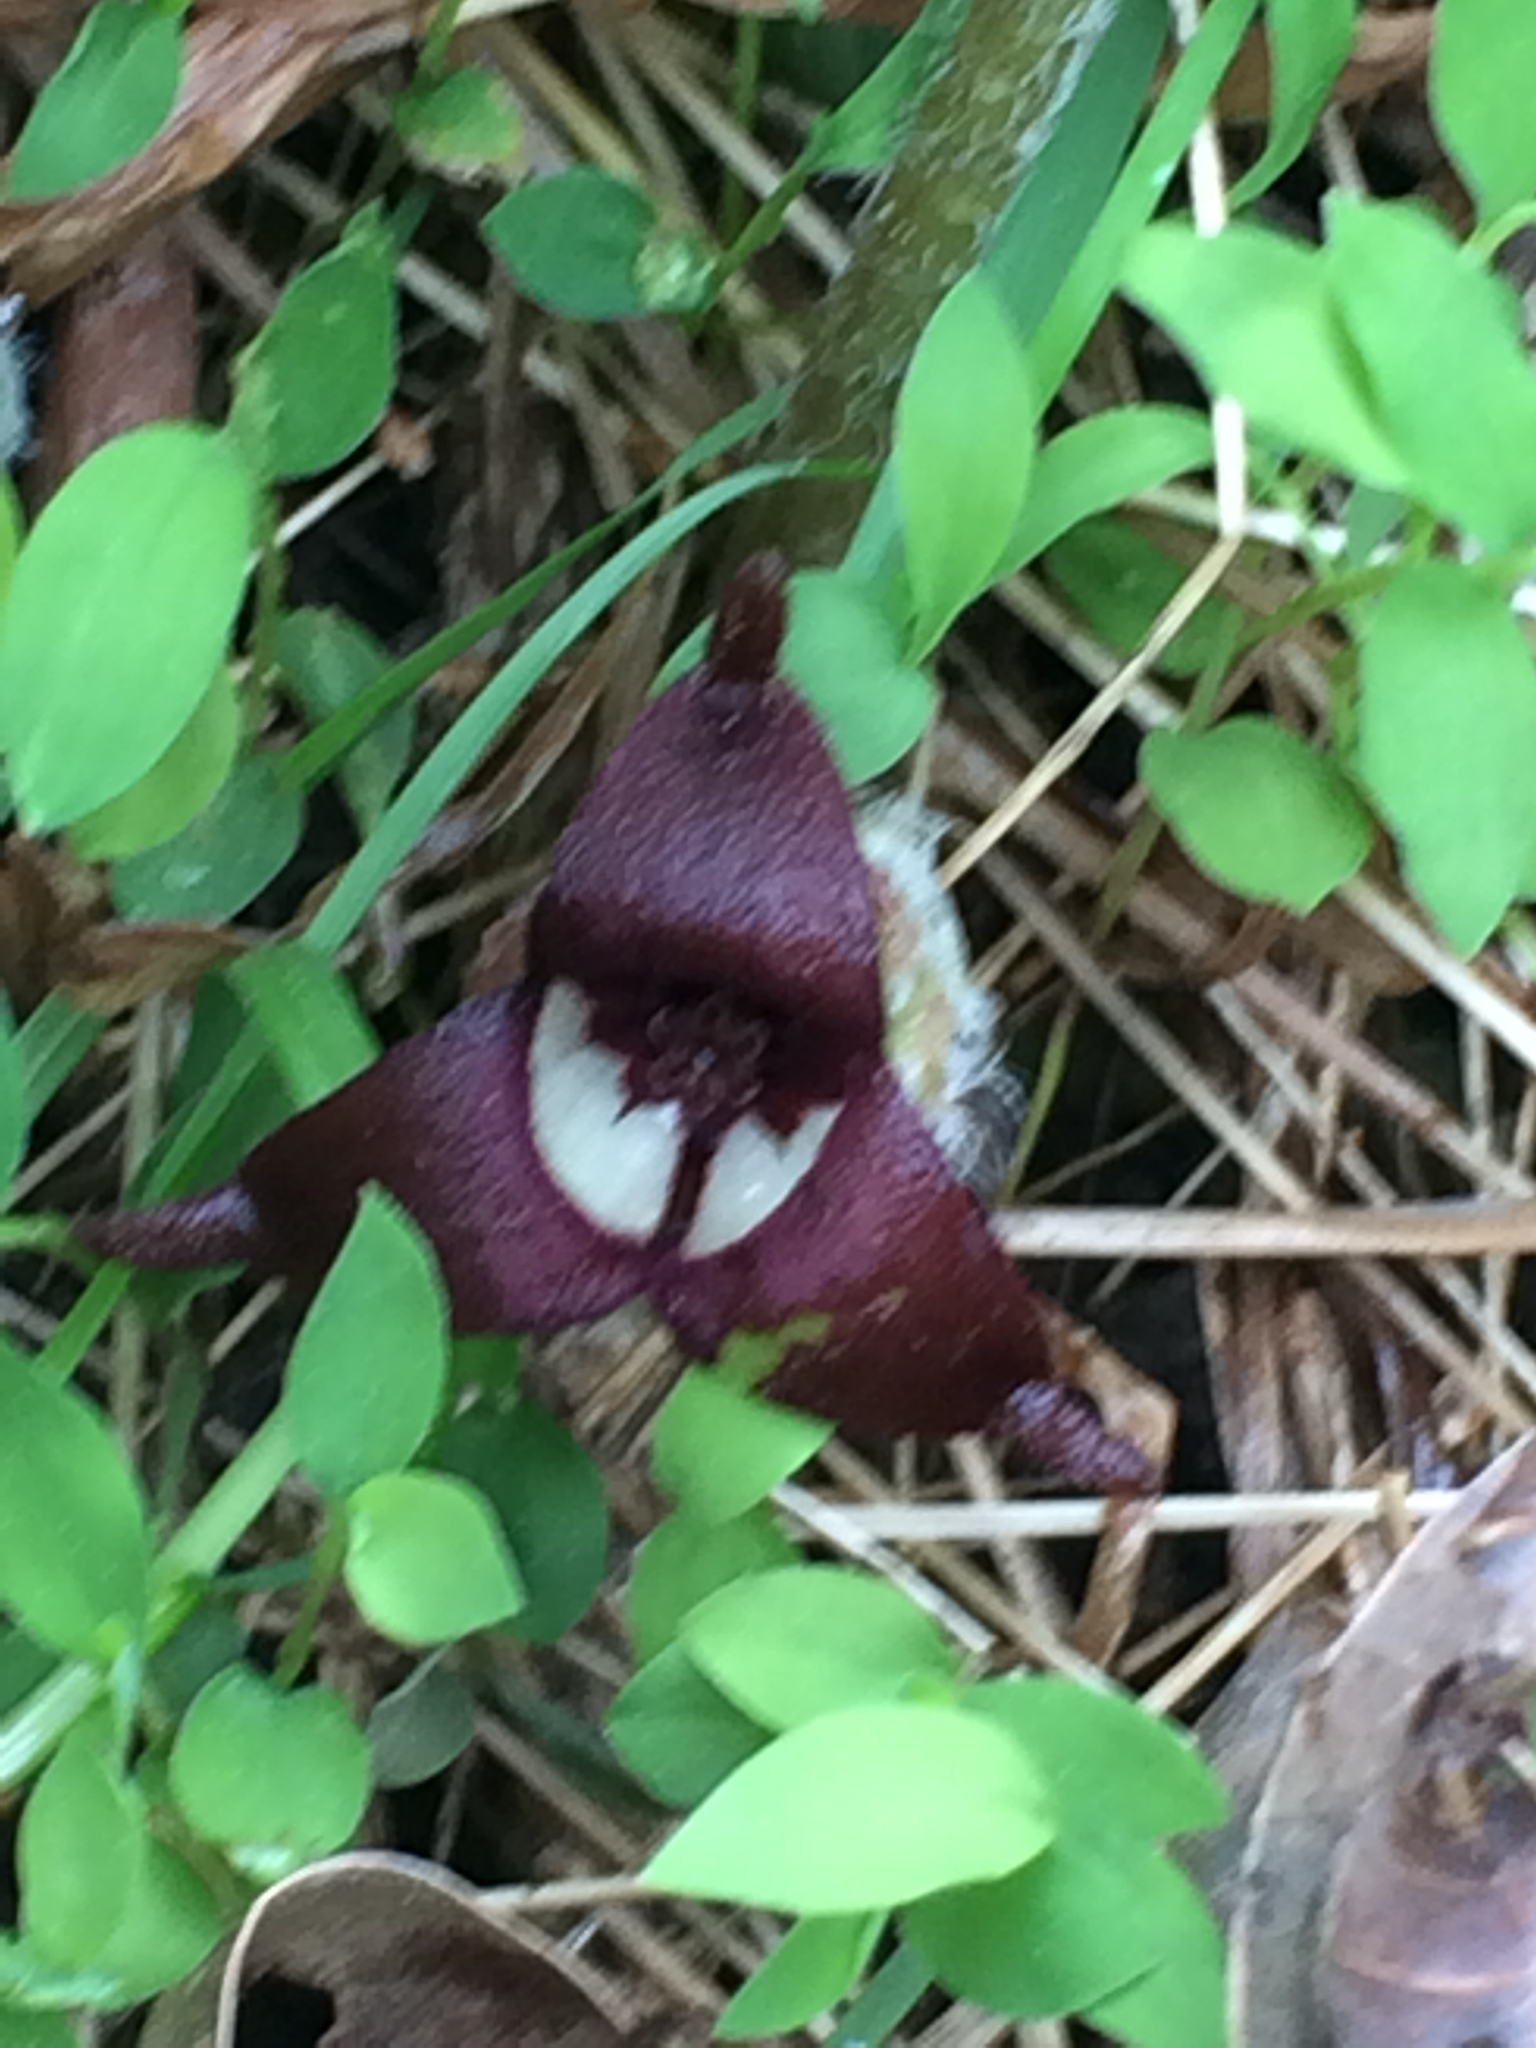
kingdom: Plantae
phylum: Tracheophyta
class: Magnoliopsida
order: Piperales
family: Aristolochiaceae
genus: Asarum
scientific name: Asarum canadense
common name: Wild ginger
